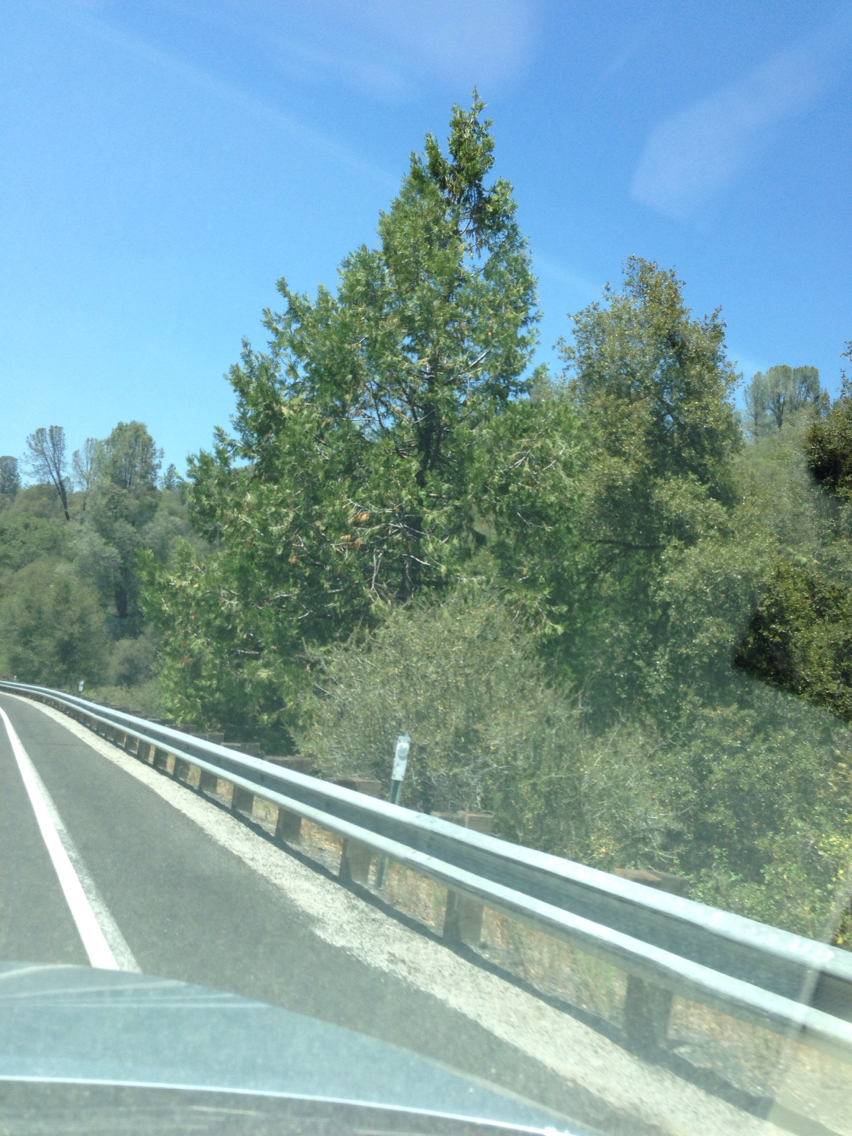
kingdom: Plantae
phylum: Tracheophyta
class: Pinopsida
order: Pinales
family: Cupressaceae
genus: Calocedrus
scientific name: Calocedrus decurrens
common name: Californian incense-cedar
